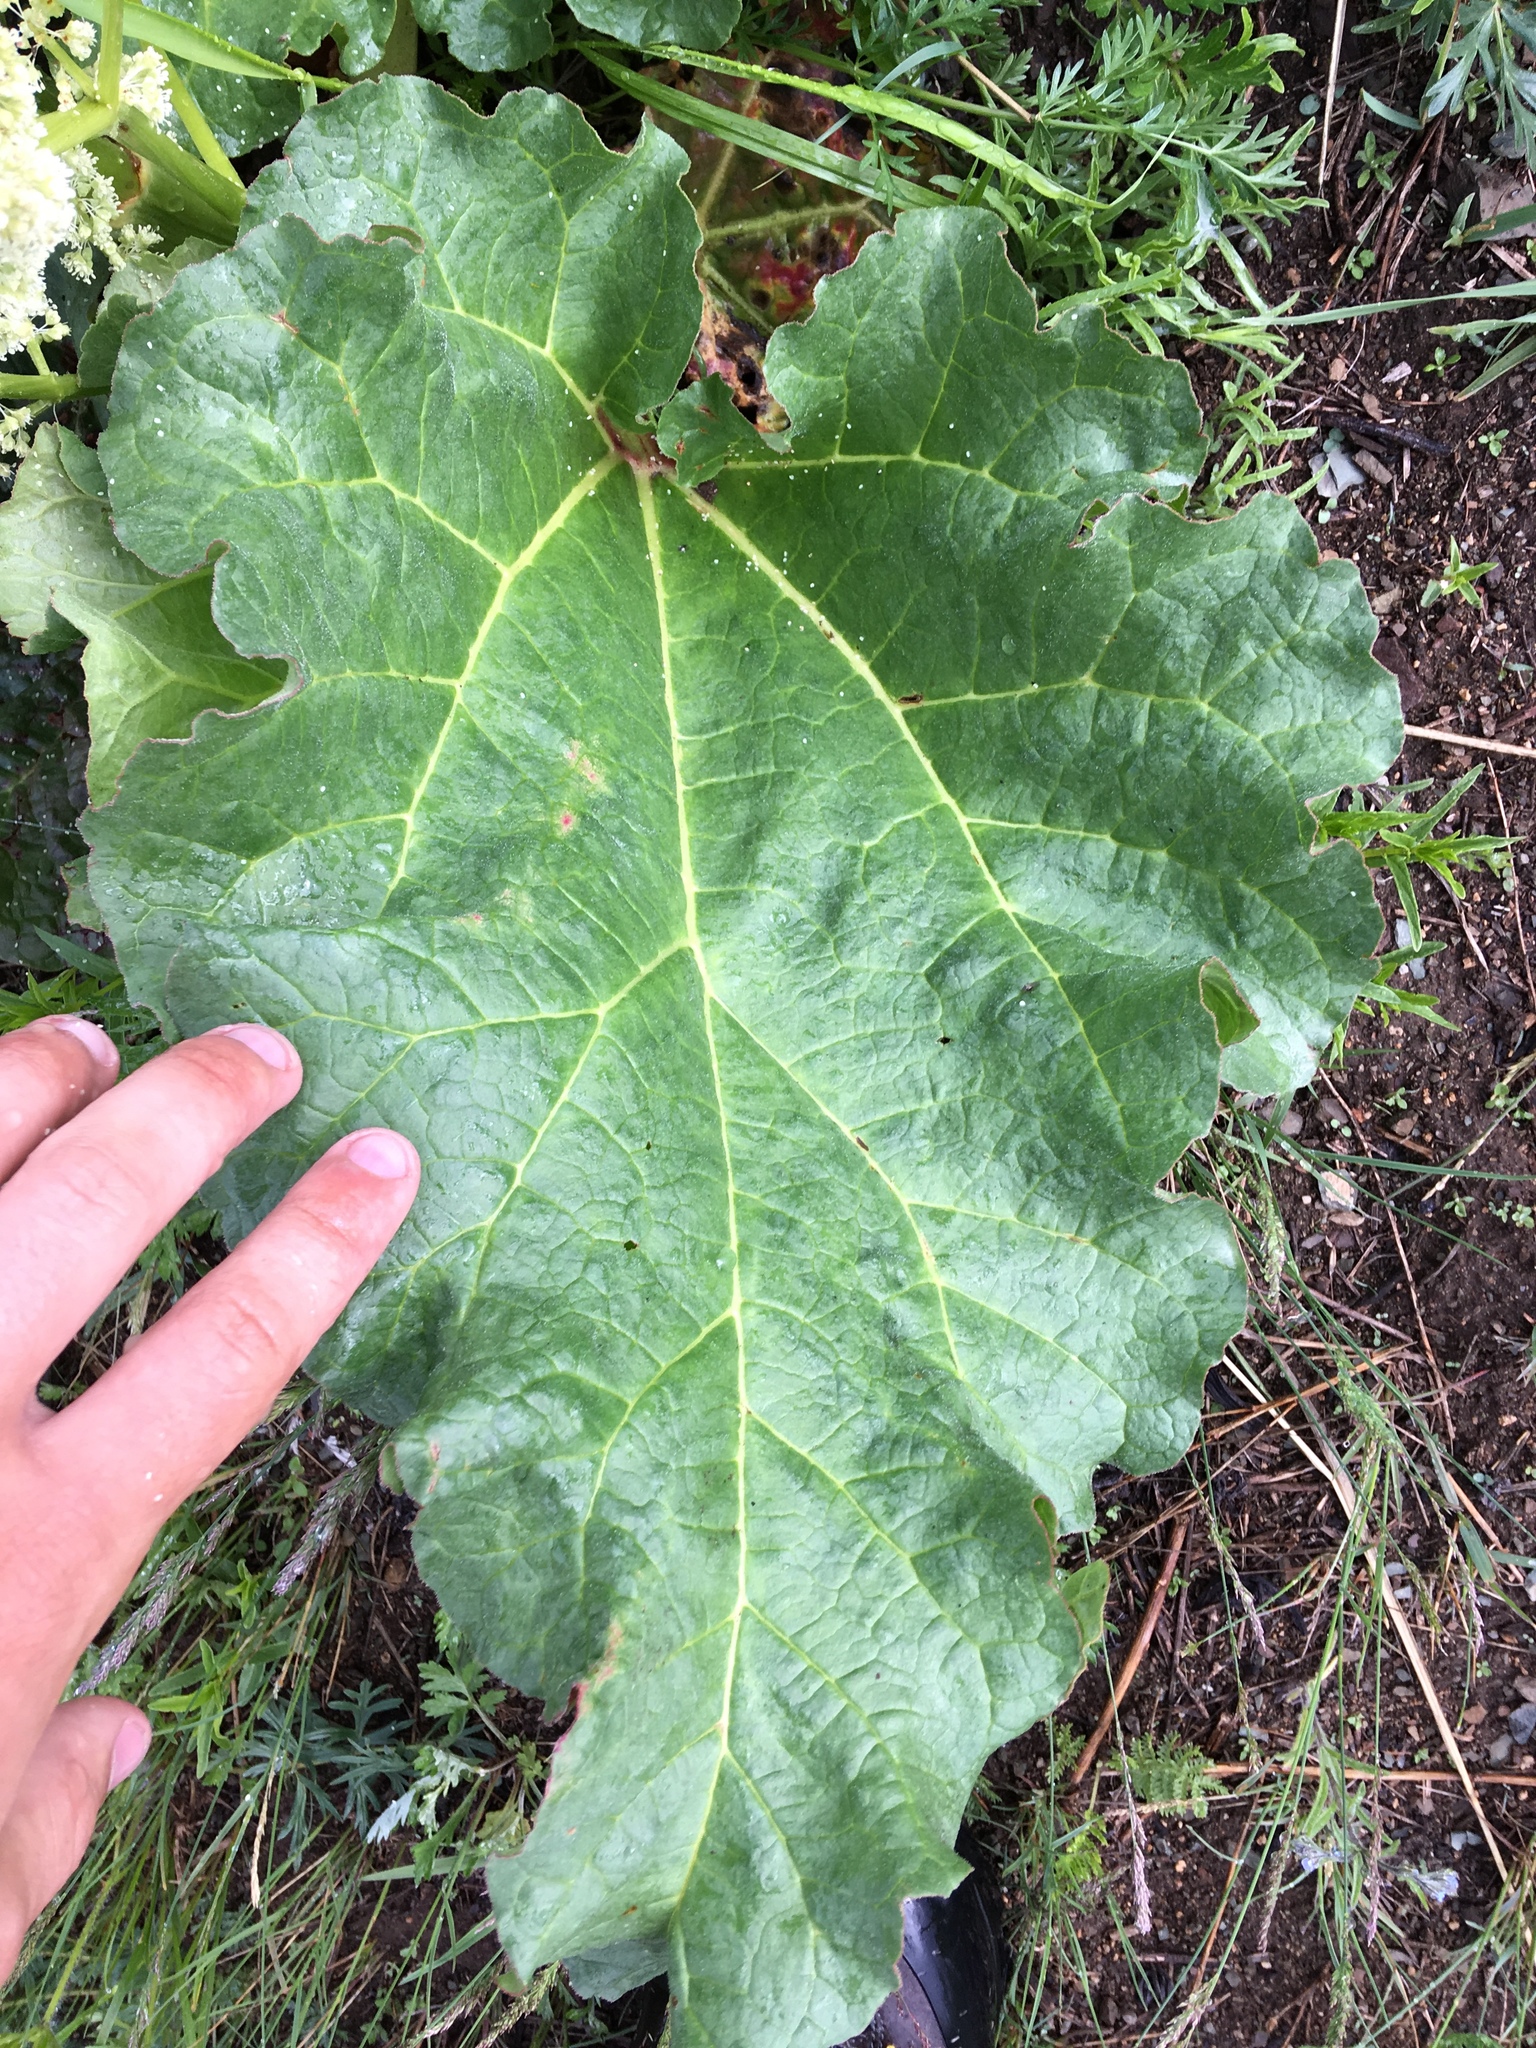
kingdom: Plantae
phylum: Tracheophyta
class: Magnoliopsida
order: Caryophyllales
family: Polygonaceae
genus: Rheum
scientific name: Rheum rhabarbarum
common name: Garden rhubarb
